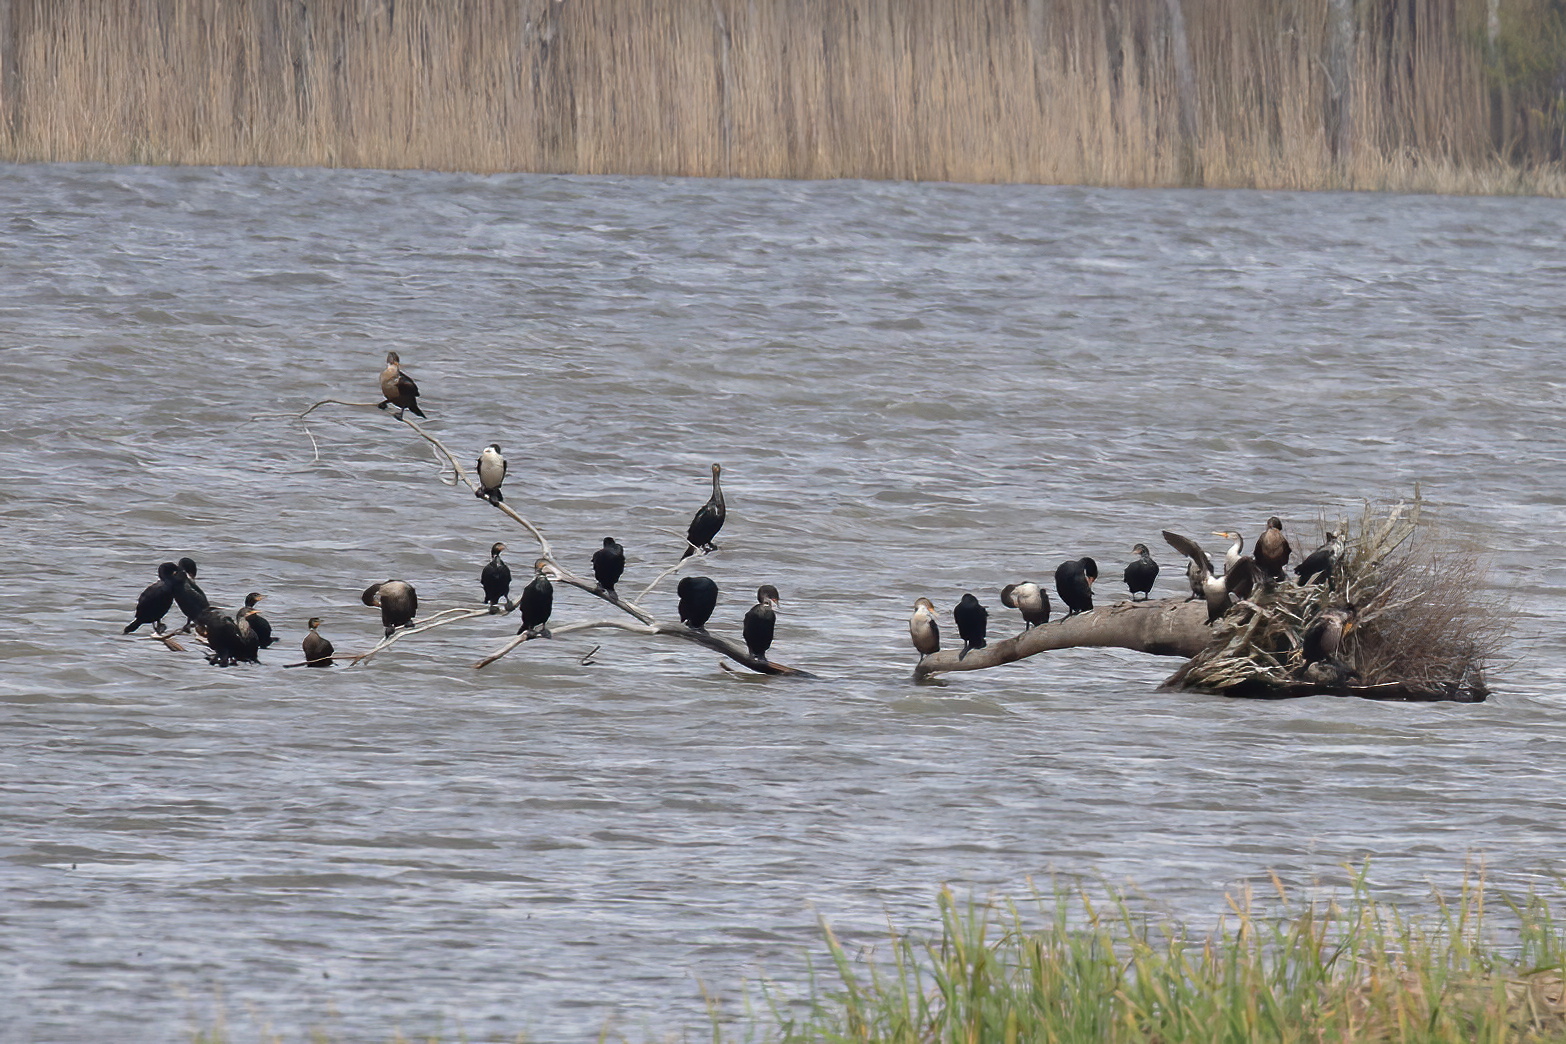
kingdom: Animalia
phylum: Chordata
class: Aves
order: Suliformes
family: Phalacrocoracidae
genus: Phalacrocorax
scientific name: Phalacrocorax auritus
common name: Double-crested cormorant
